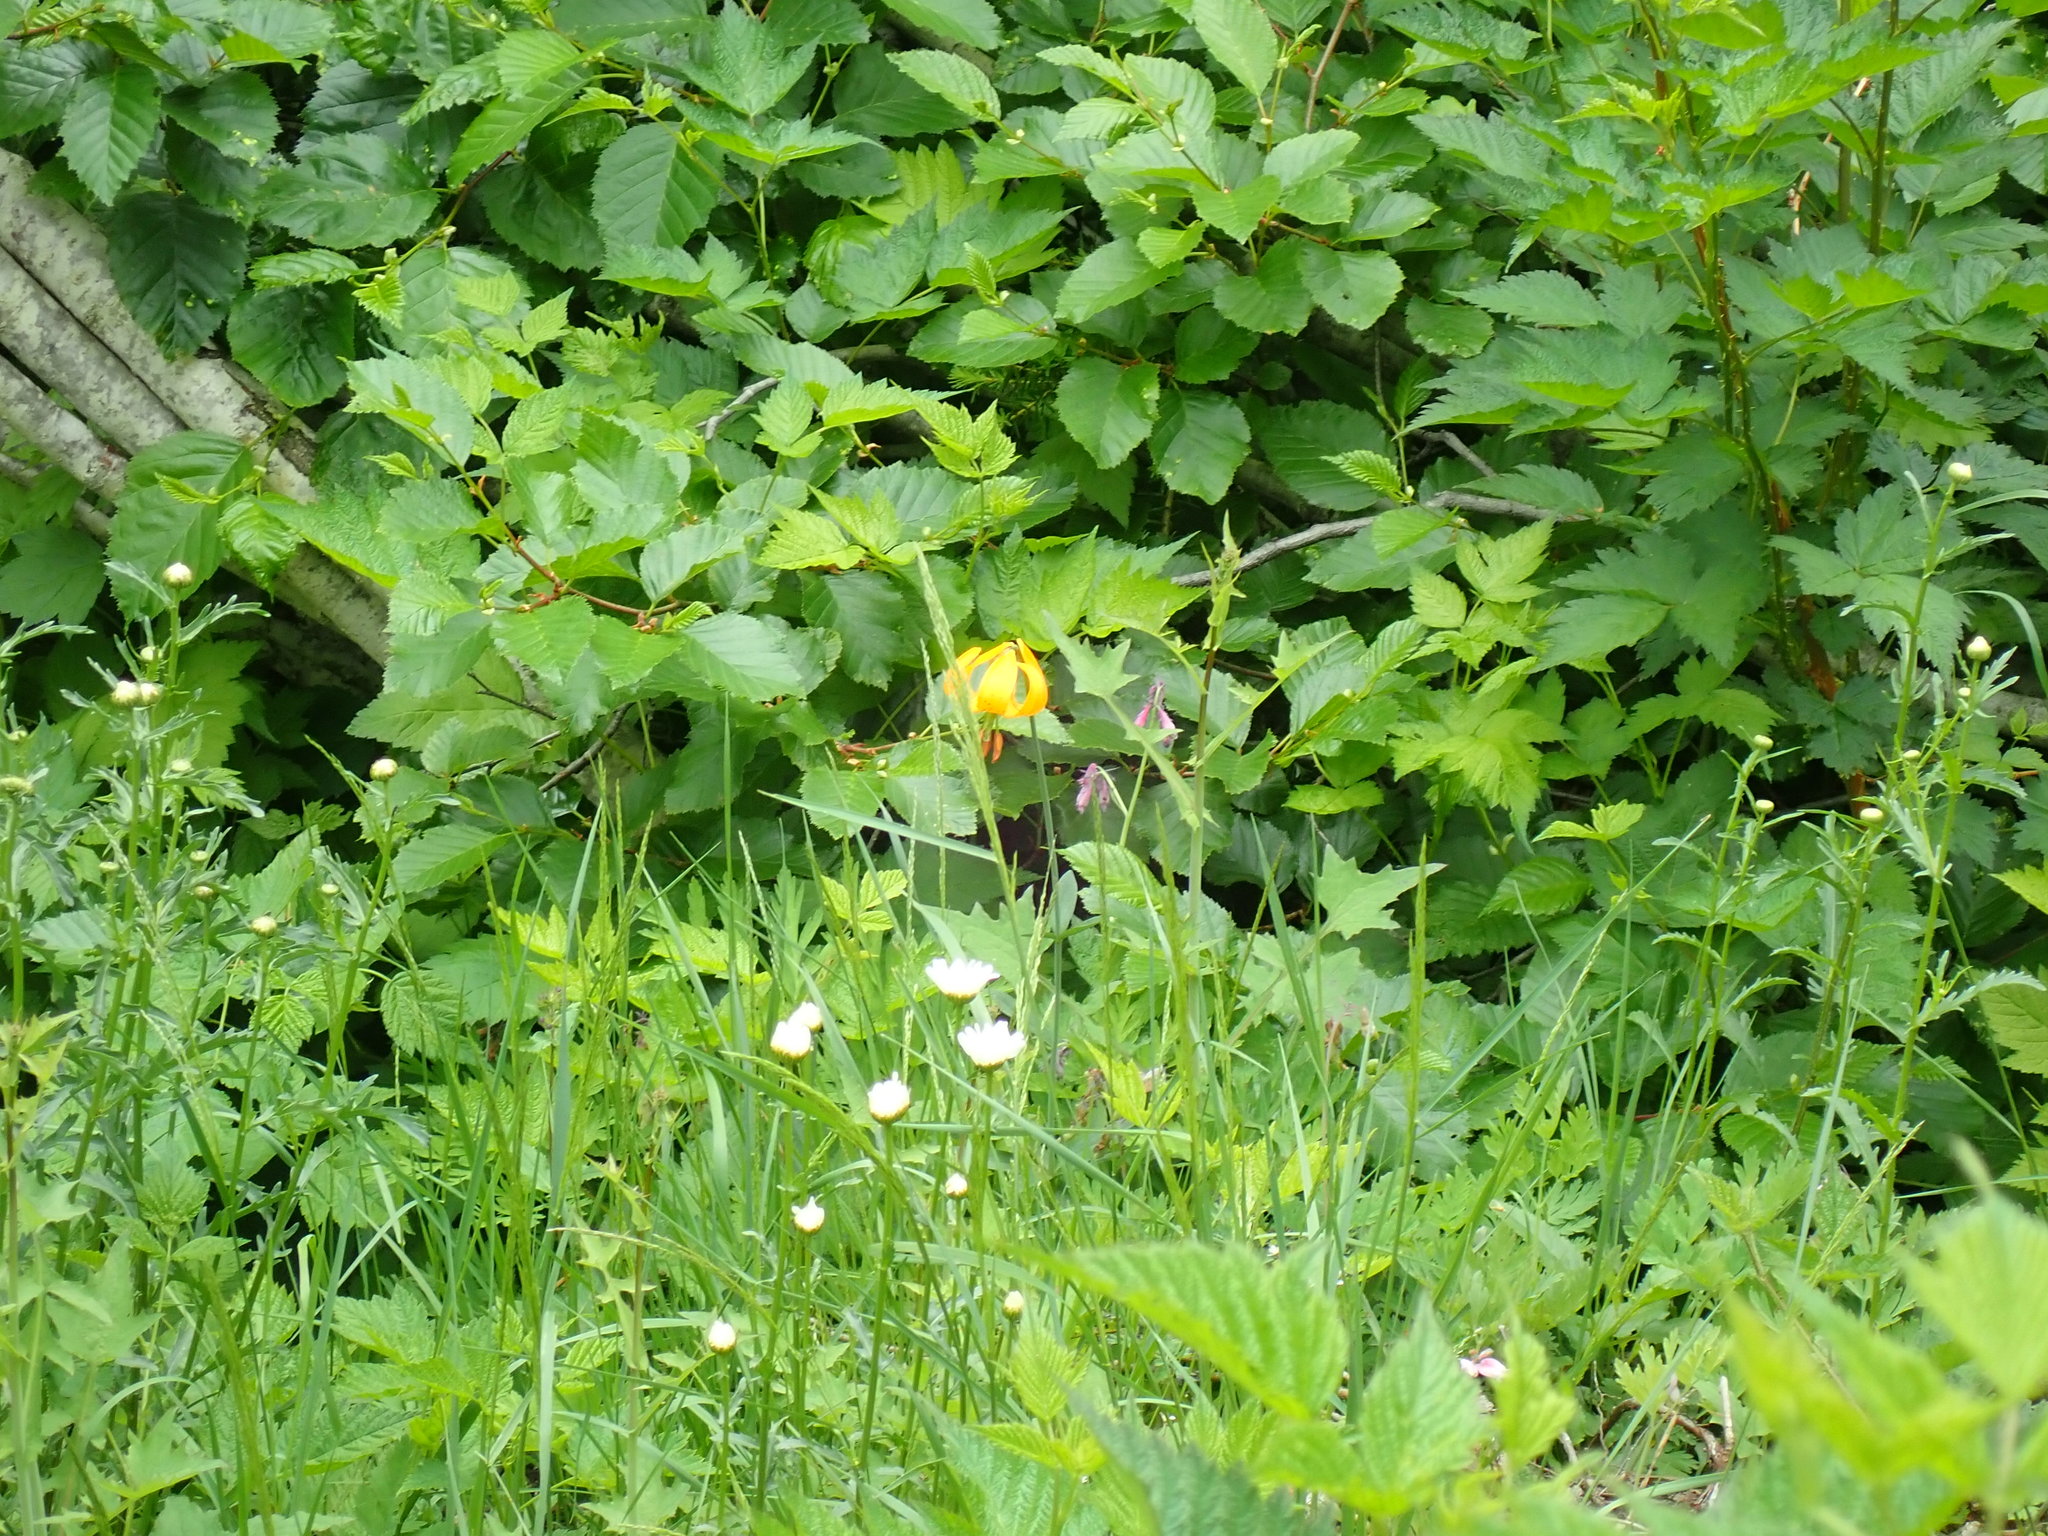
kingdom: Plantae
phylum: Tracheophyta
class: Liliopsida
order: Liliales
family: Liliaceae
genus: Lilium
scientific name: Lilium columbianum
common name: Columbia lily
